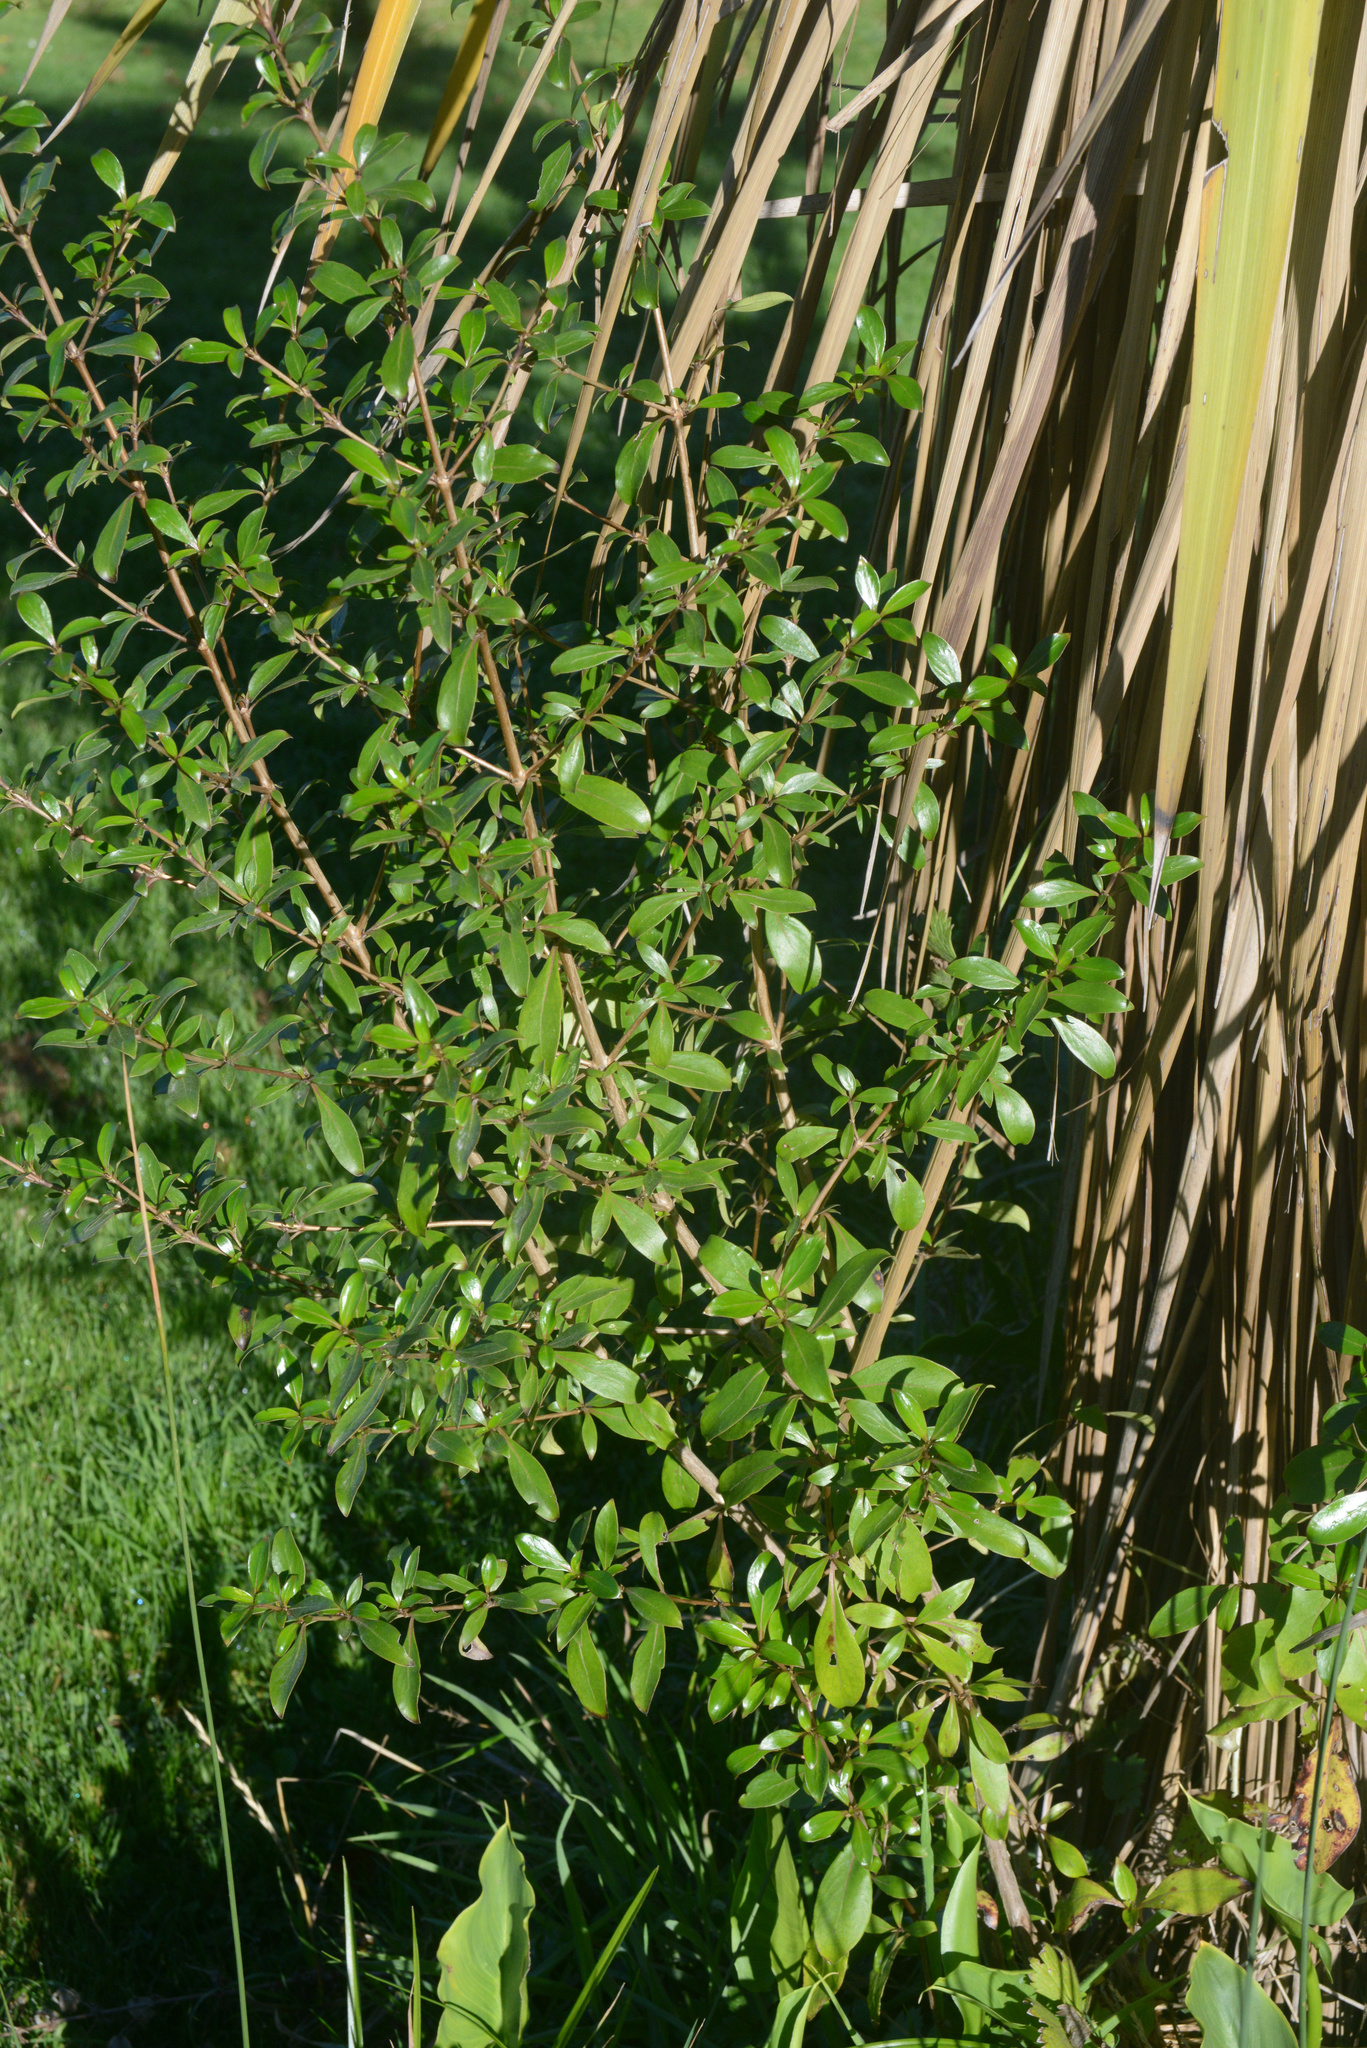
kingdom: Plantae
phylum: Tracheophyta
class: Magnoliopsida
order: Gentianales
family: Rubiaceae
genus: Coprosma
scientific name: Coprosma cunninghamii
